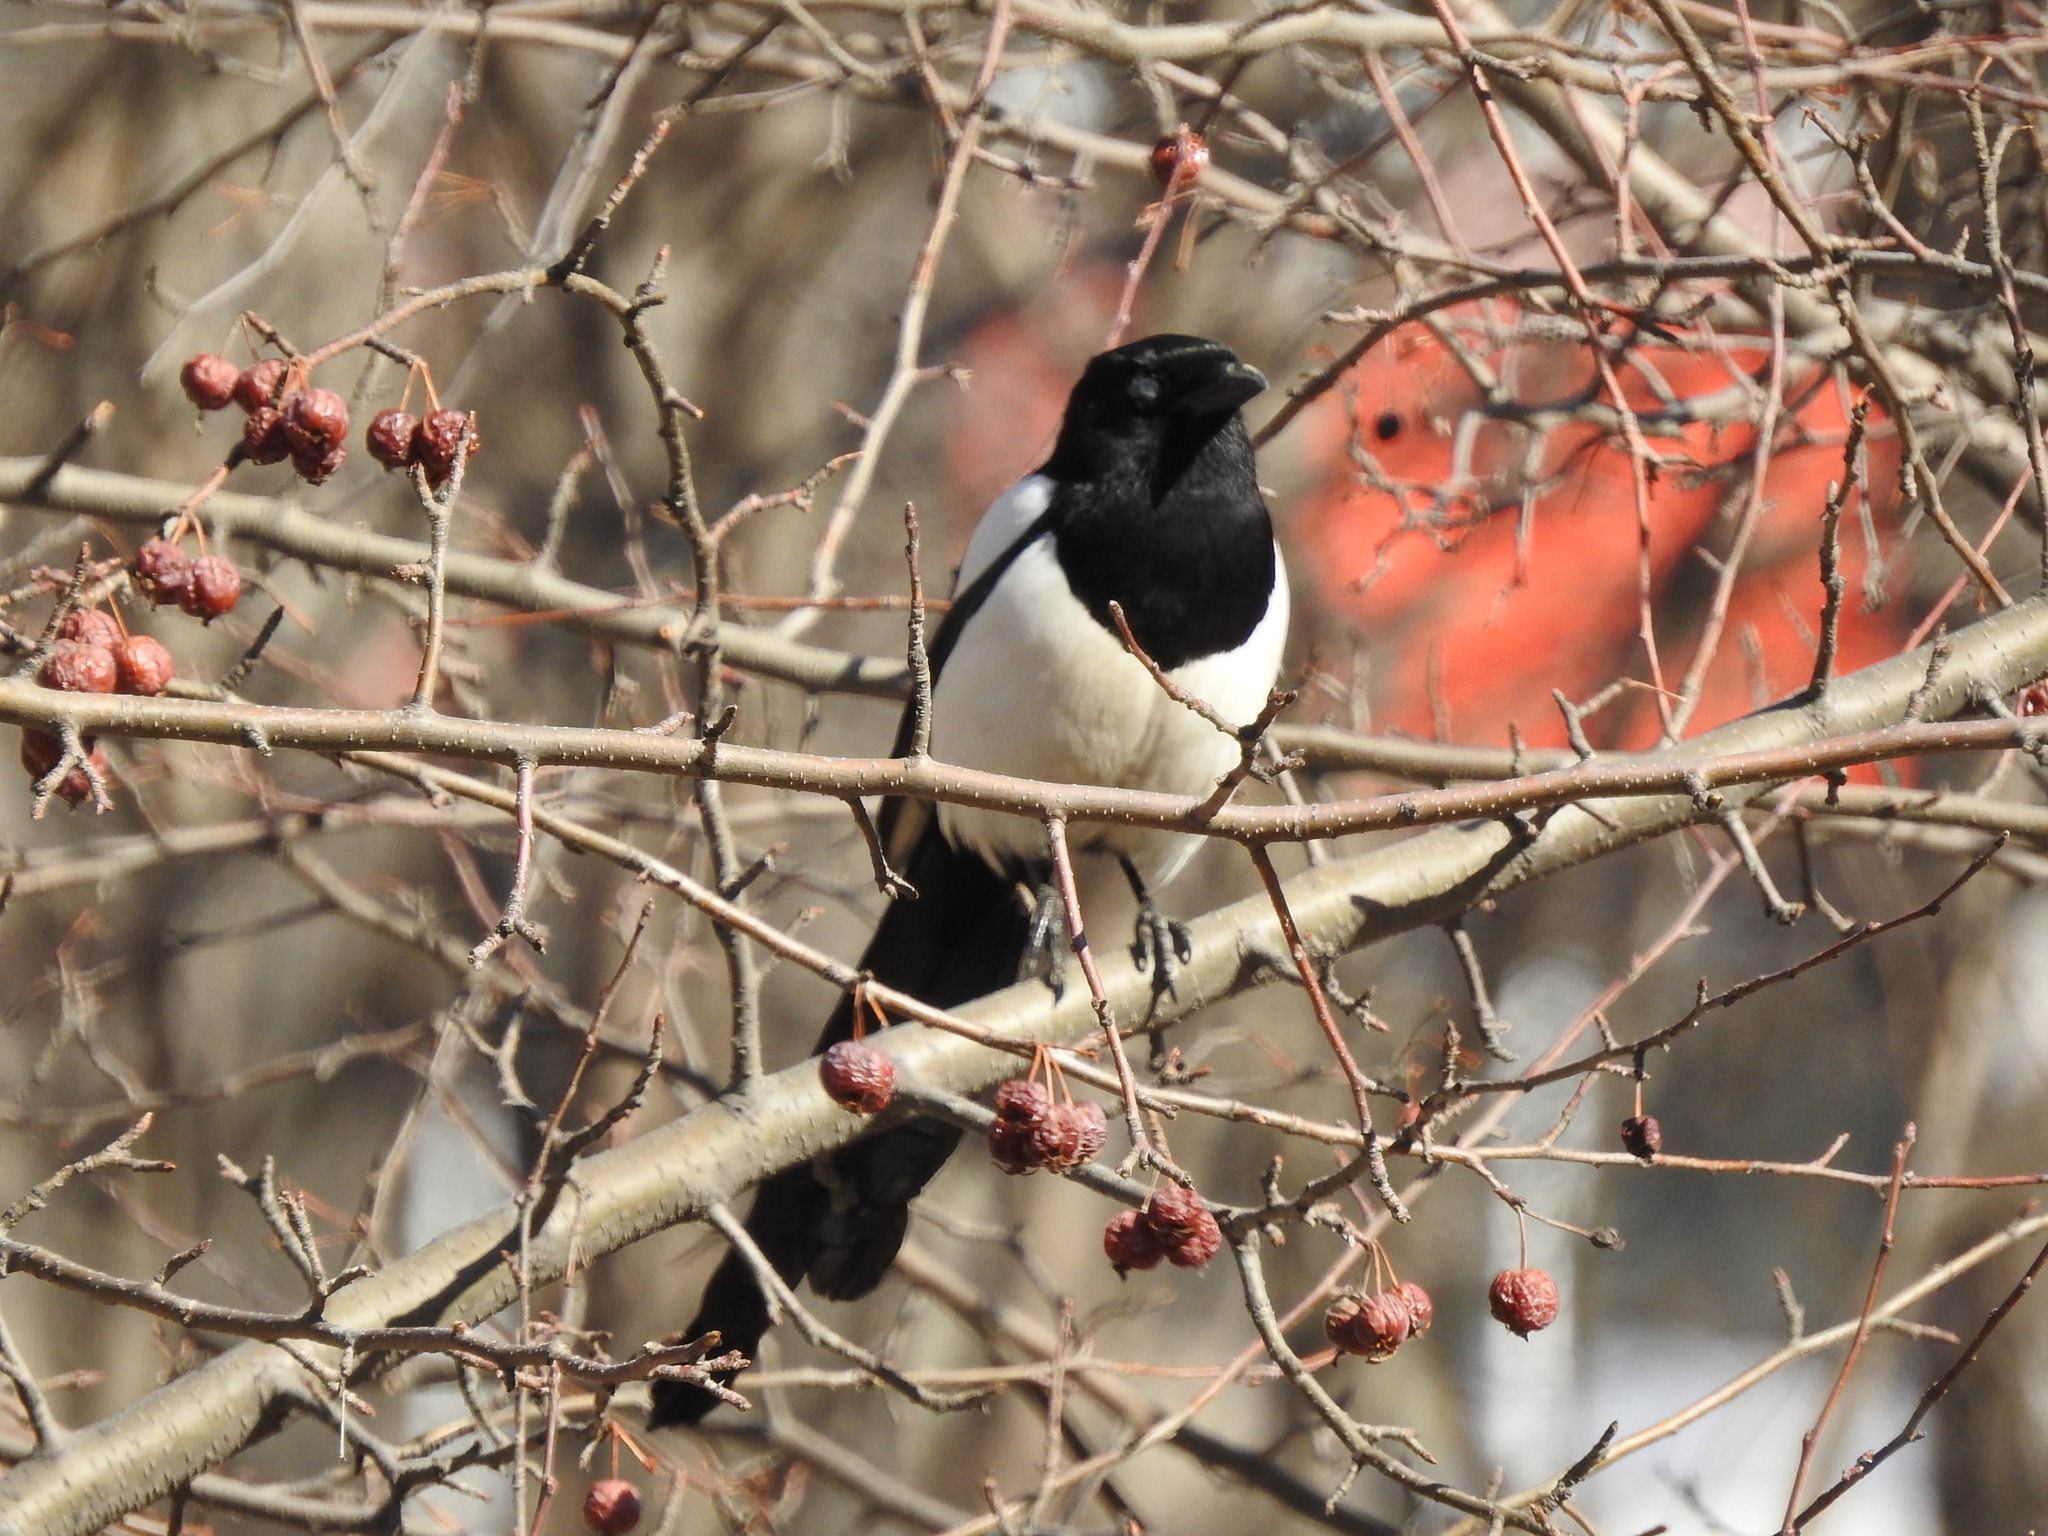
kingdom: Animalia
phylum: Chordata
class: Aves
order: Passeriformes
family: Corvidae
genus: Pica
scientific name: Pica pica
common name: Eurasian magpie
